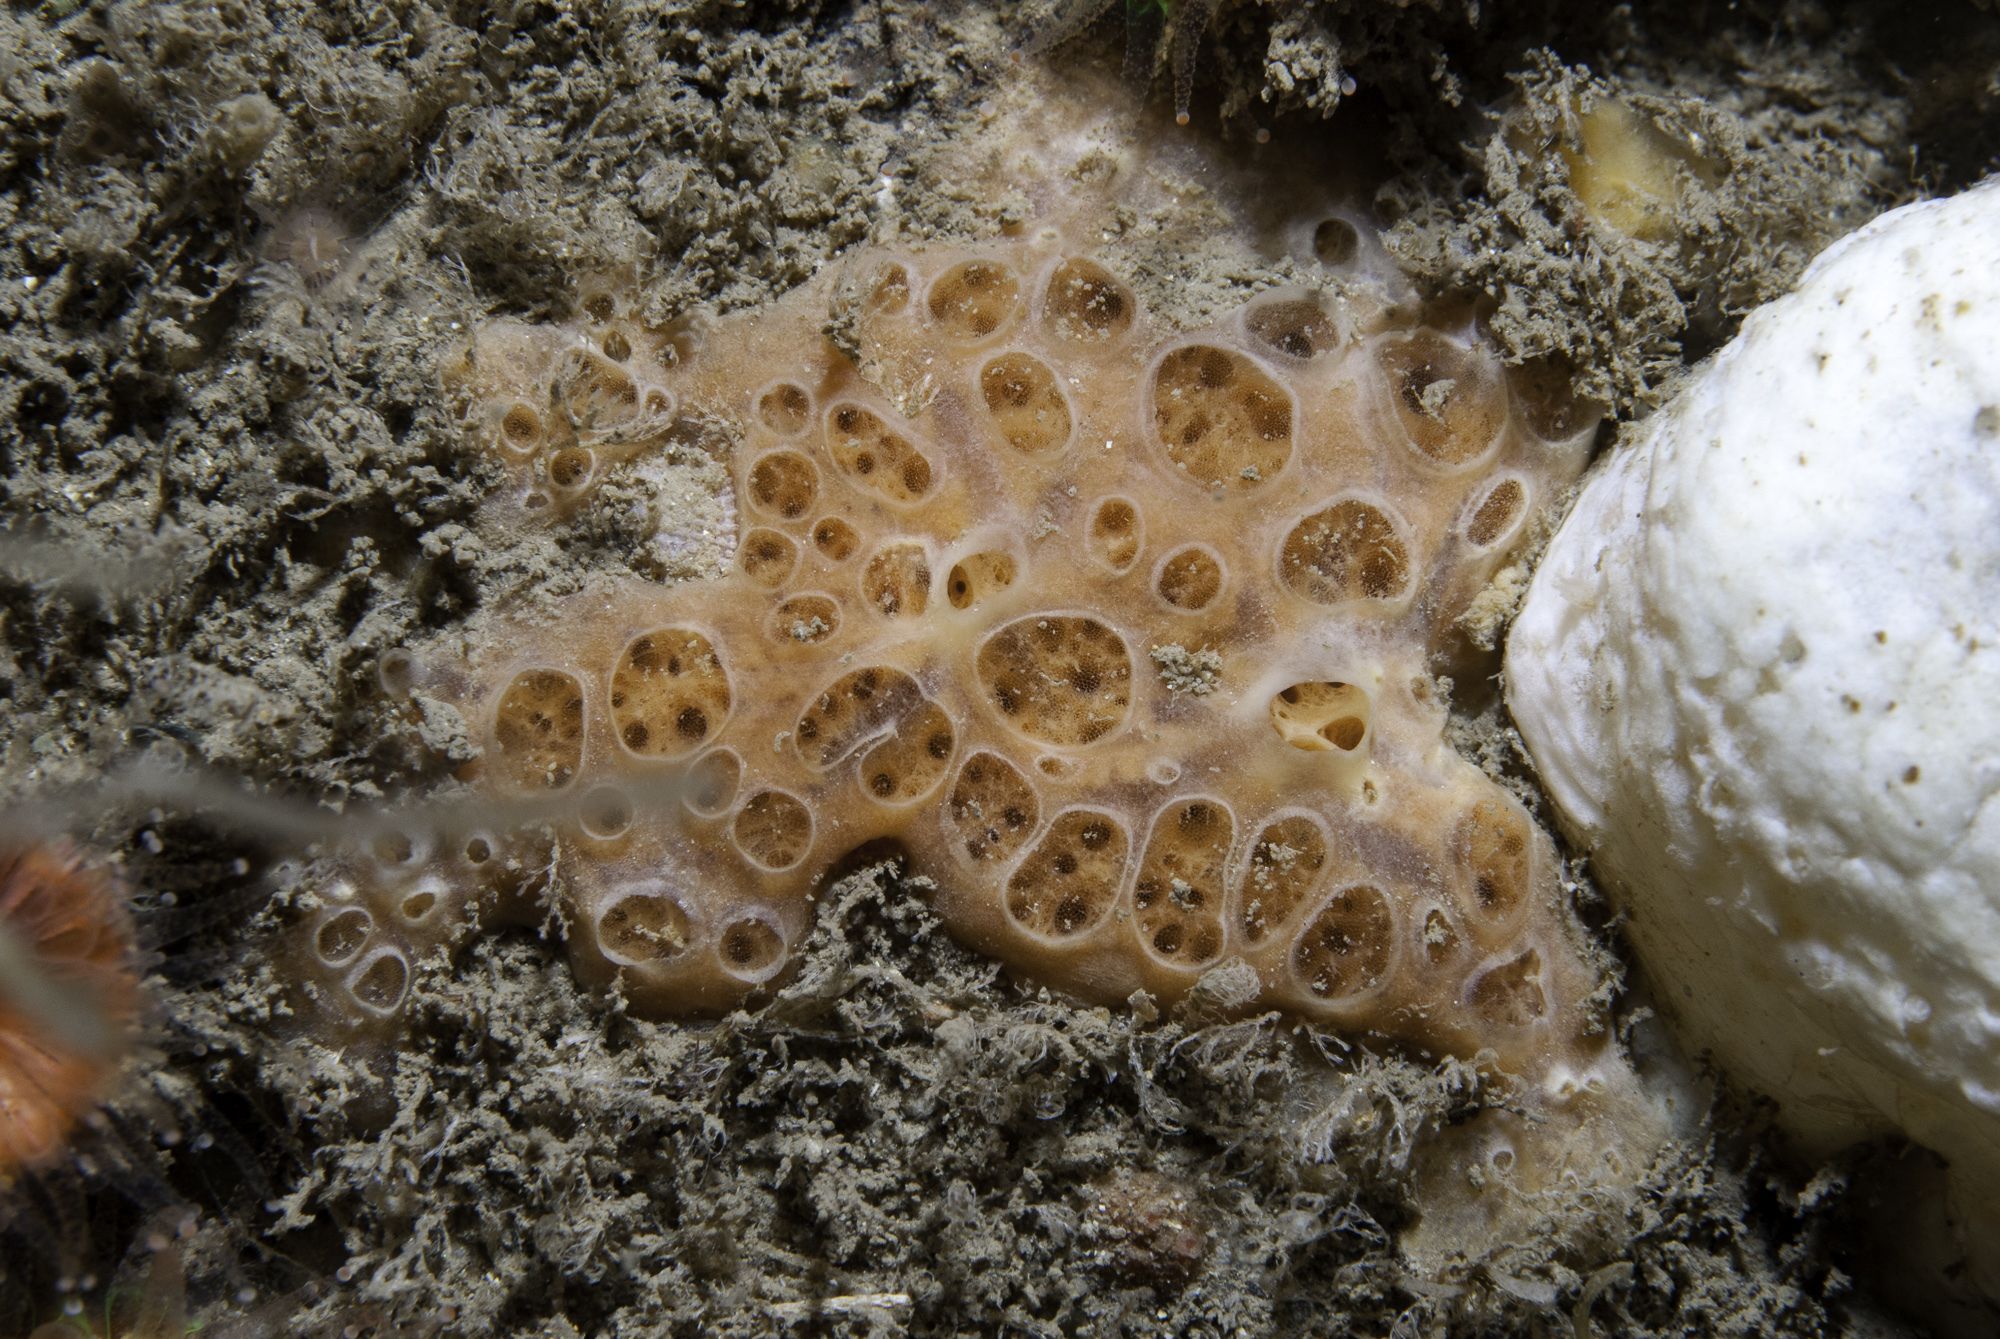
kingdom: Animalia
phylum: Porifera
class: Demospongiae
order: Poecilosclerida
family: Hymedesmiidae
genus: Hemimycale
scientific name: Hemimycale columella
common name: Crater sponge
